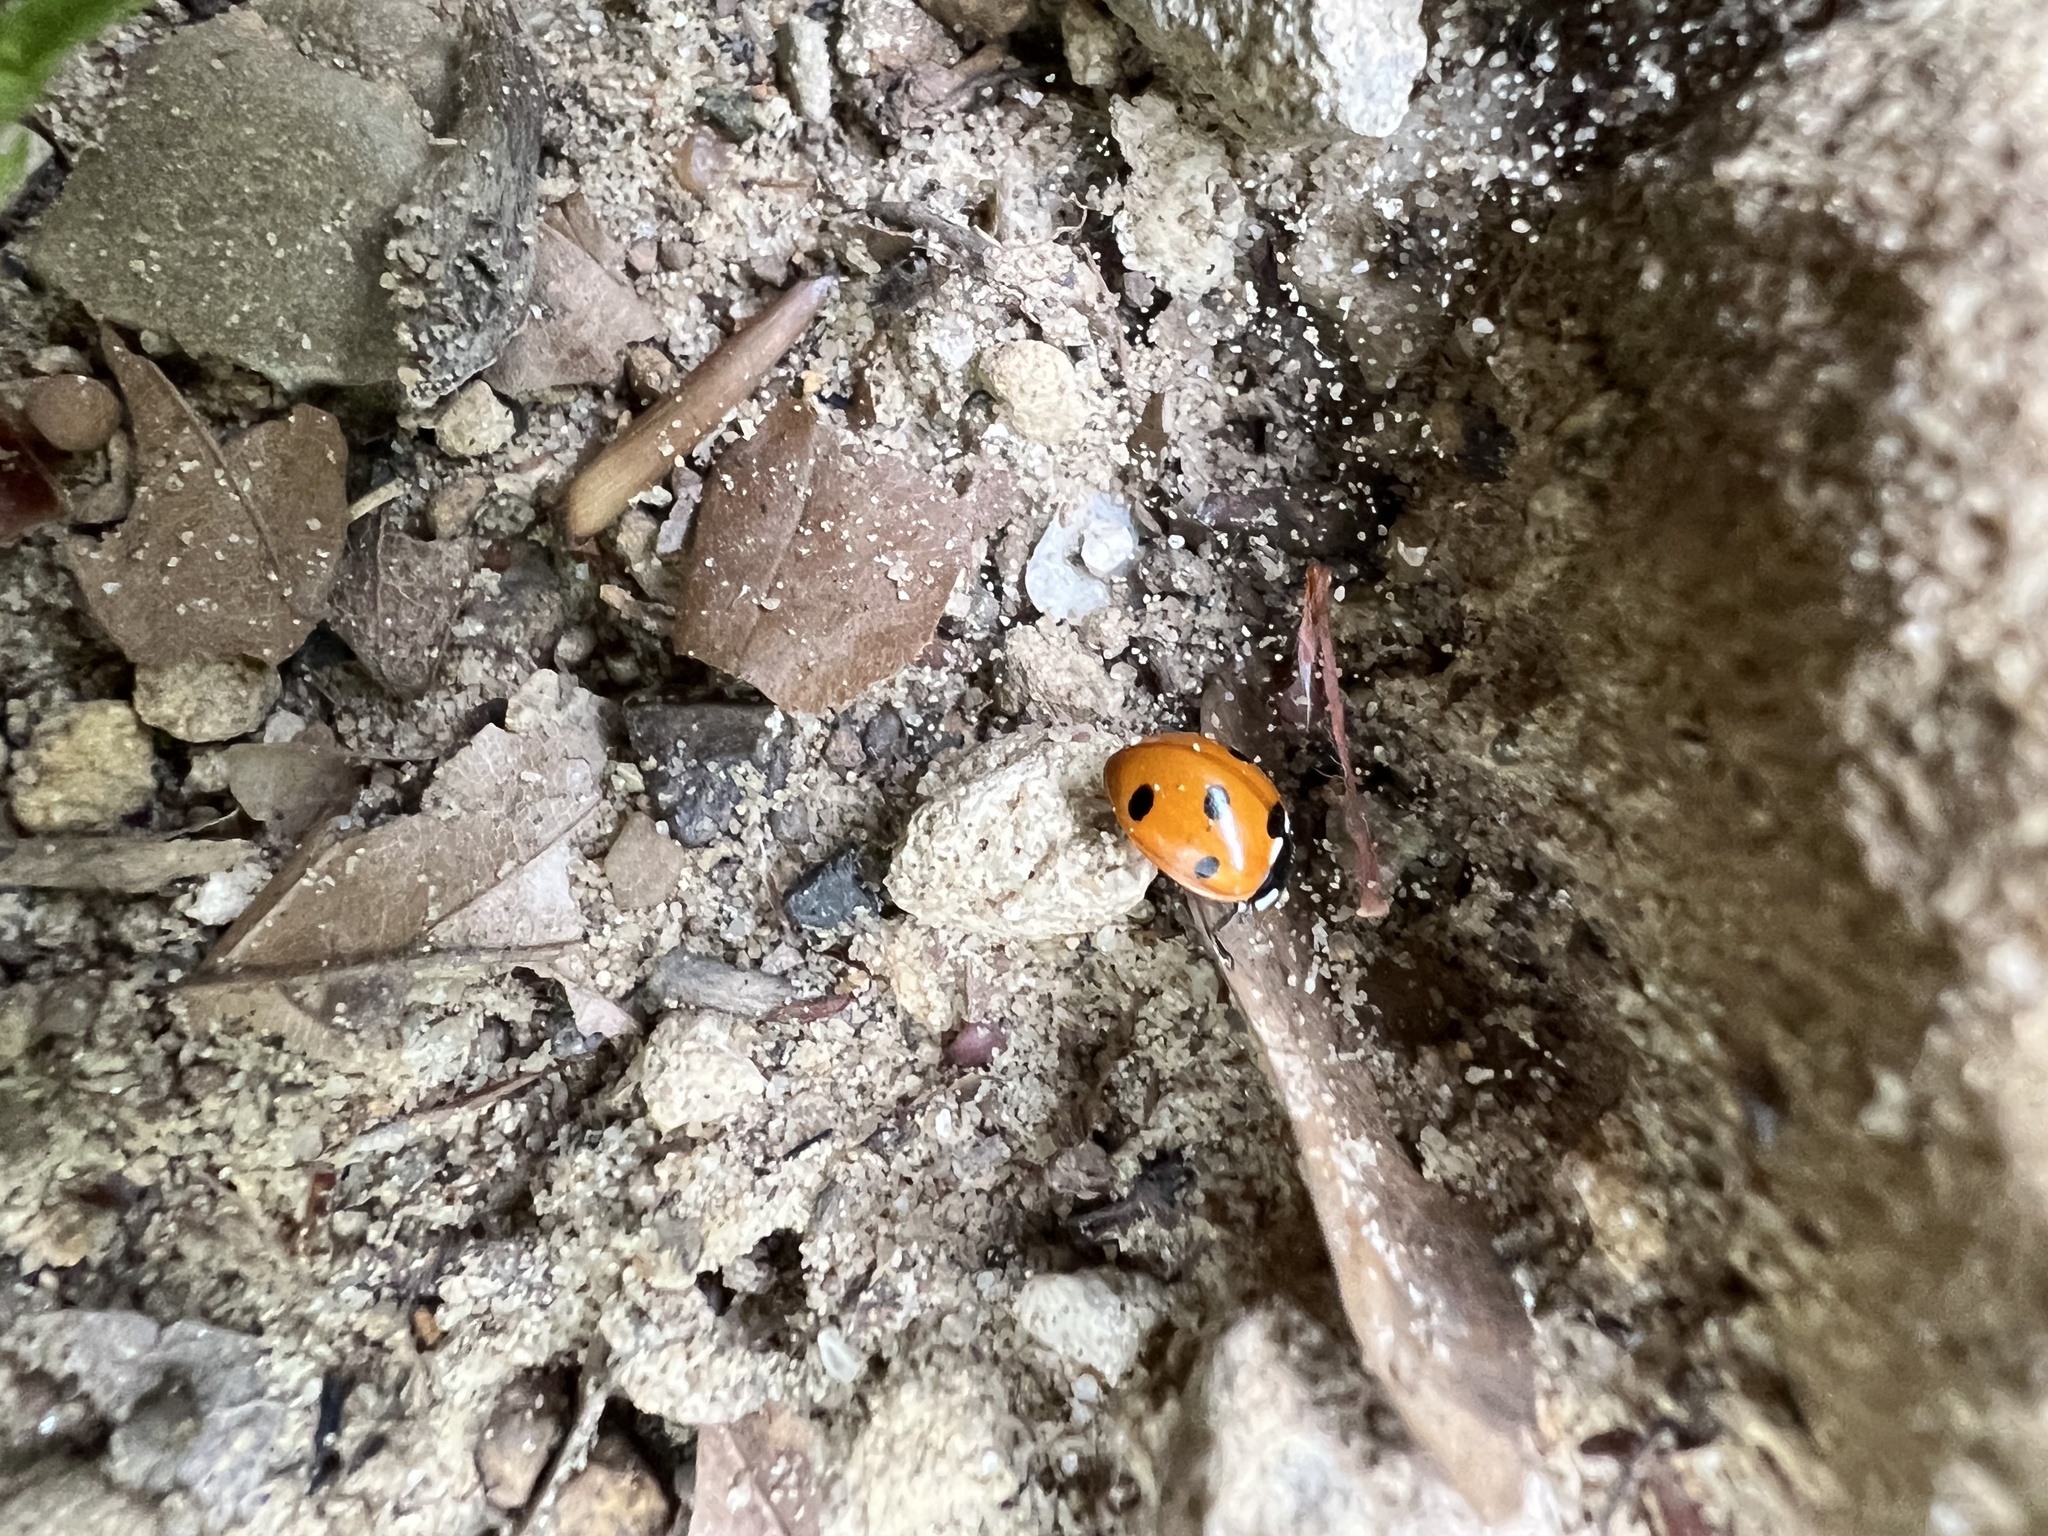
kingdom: Animalia
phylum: Arthropoda
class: Insecta
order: Coleoptera
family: Coccinellidae
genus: Coccinella
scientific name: Coccinella septempunctata
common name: Sevenspotted lady beetle
